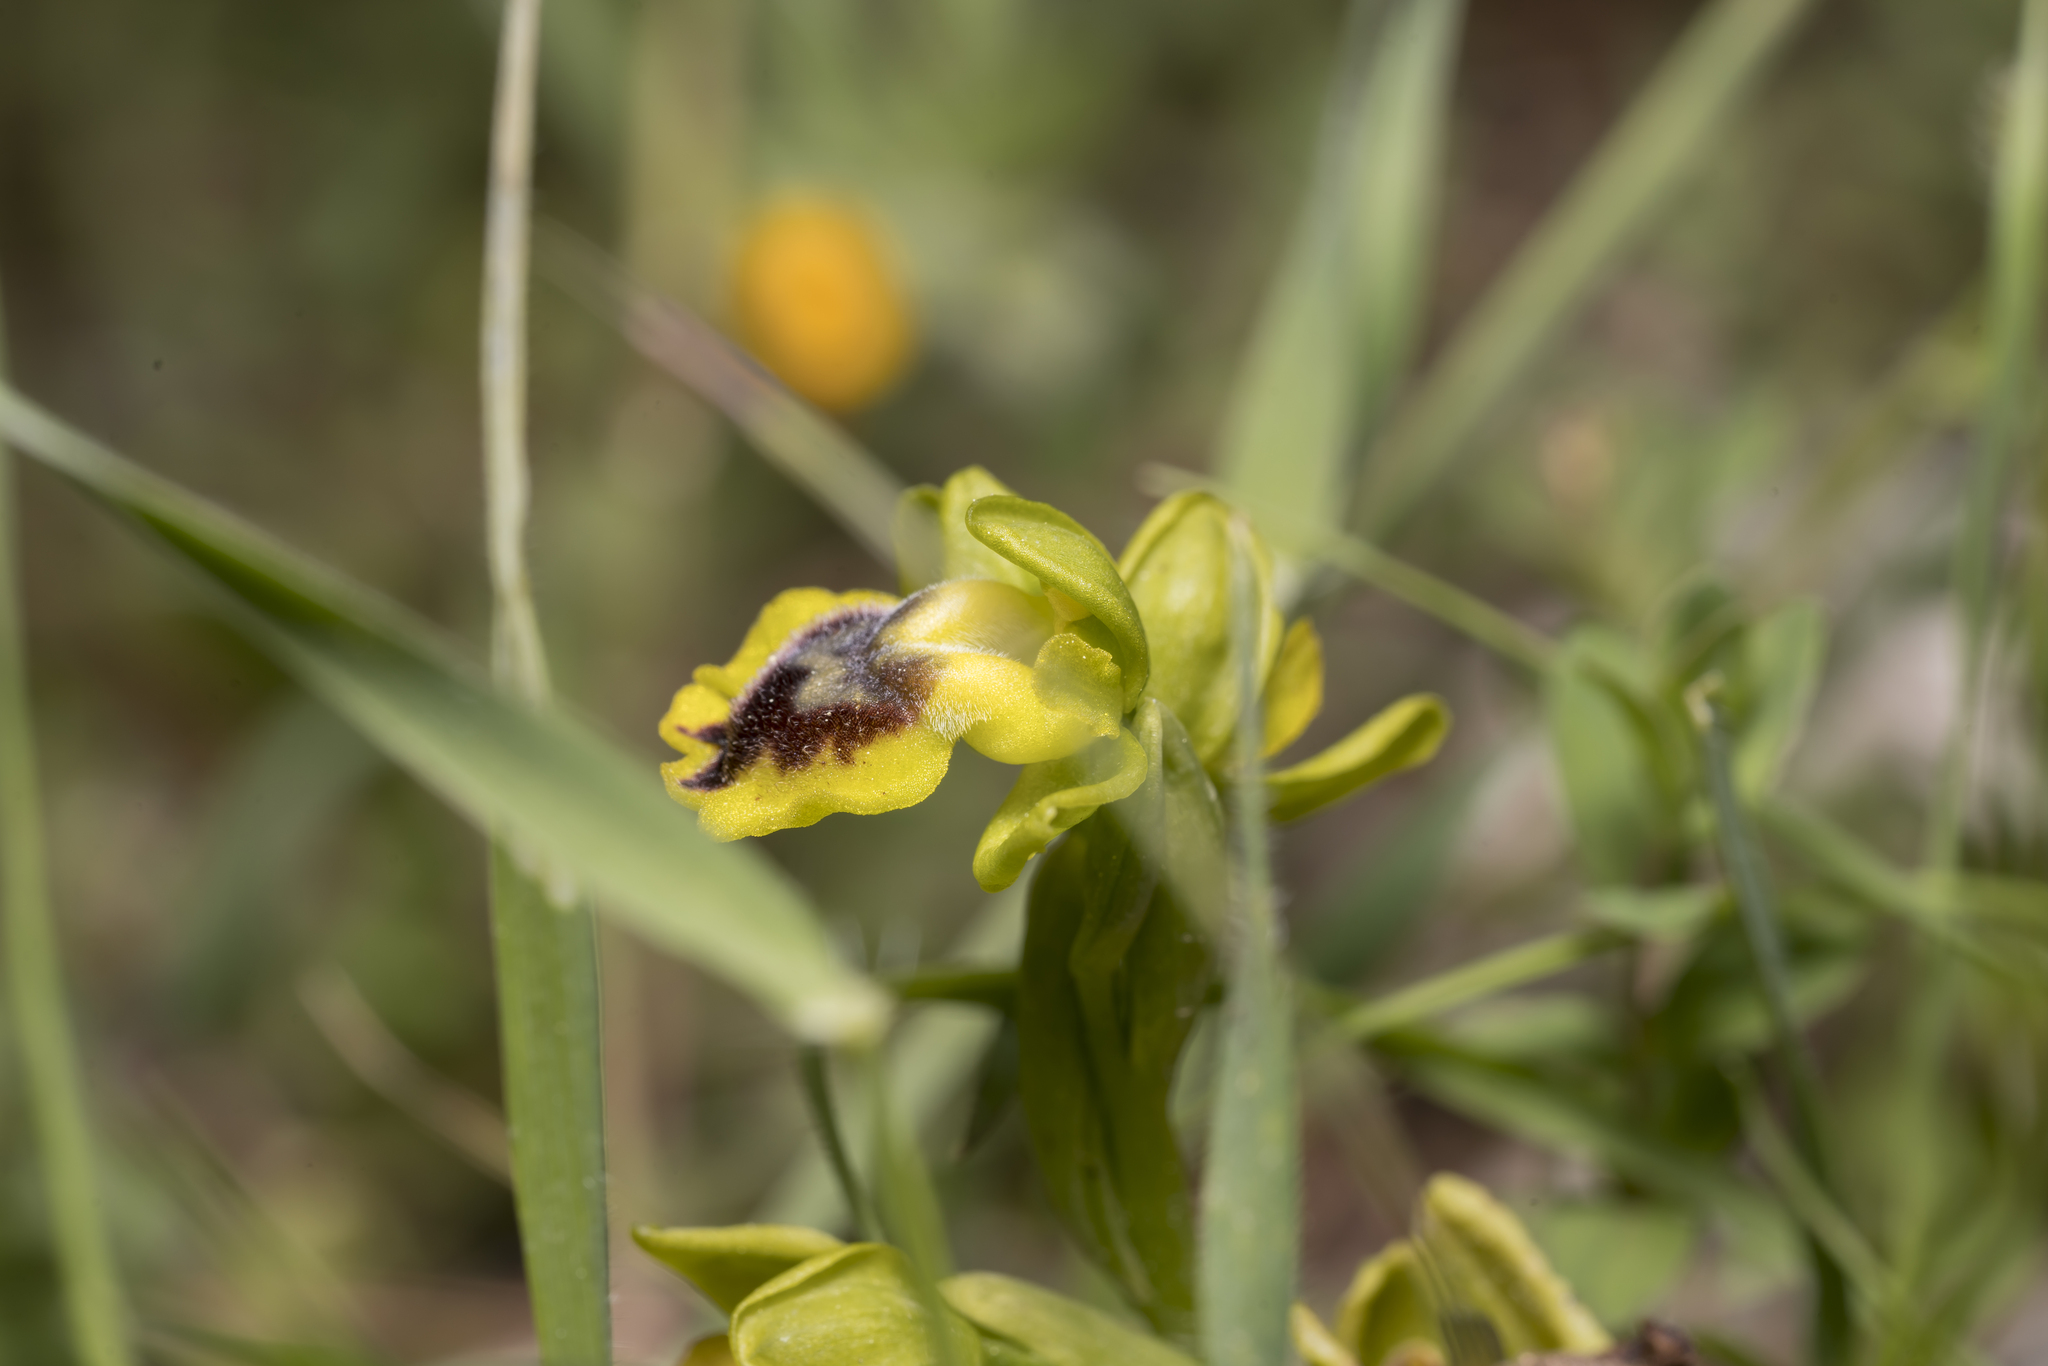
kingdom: Plantae
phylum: Tracheophyta
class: Liliopsida
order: Asparagales
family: Orchidaceae
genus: Ophrys
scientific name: Ophrys lutea
